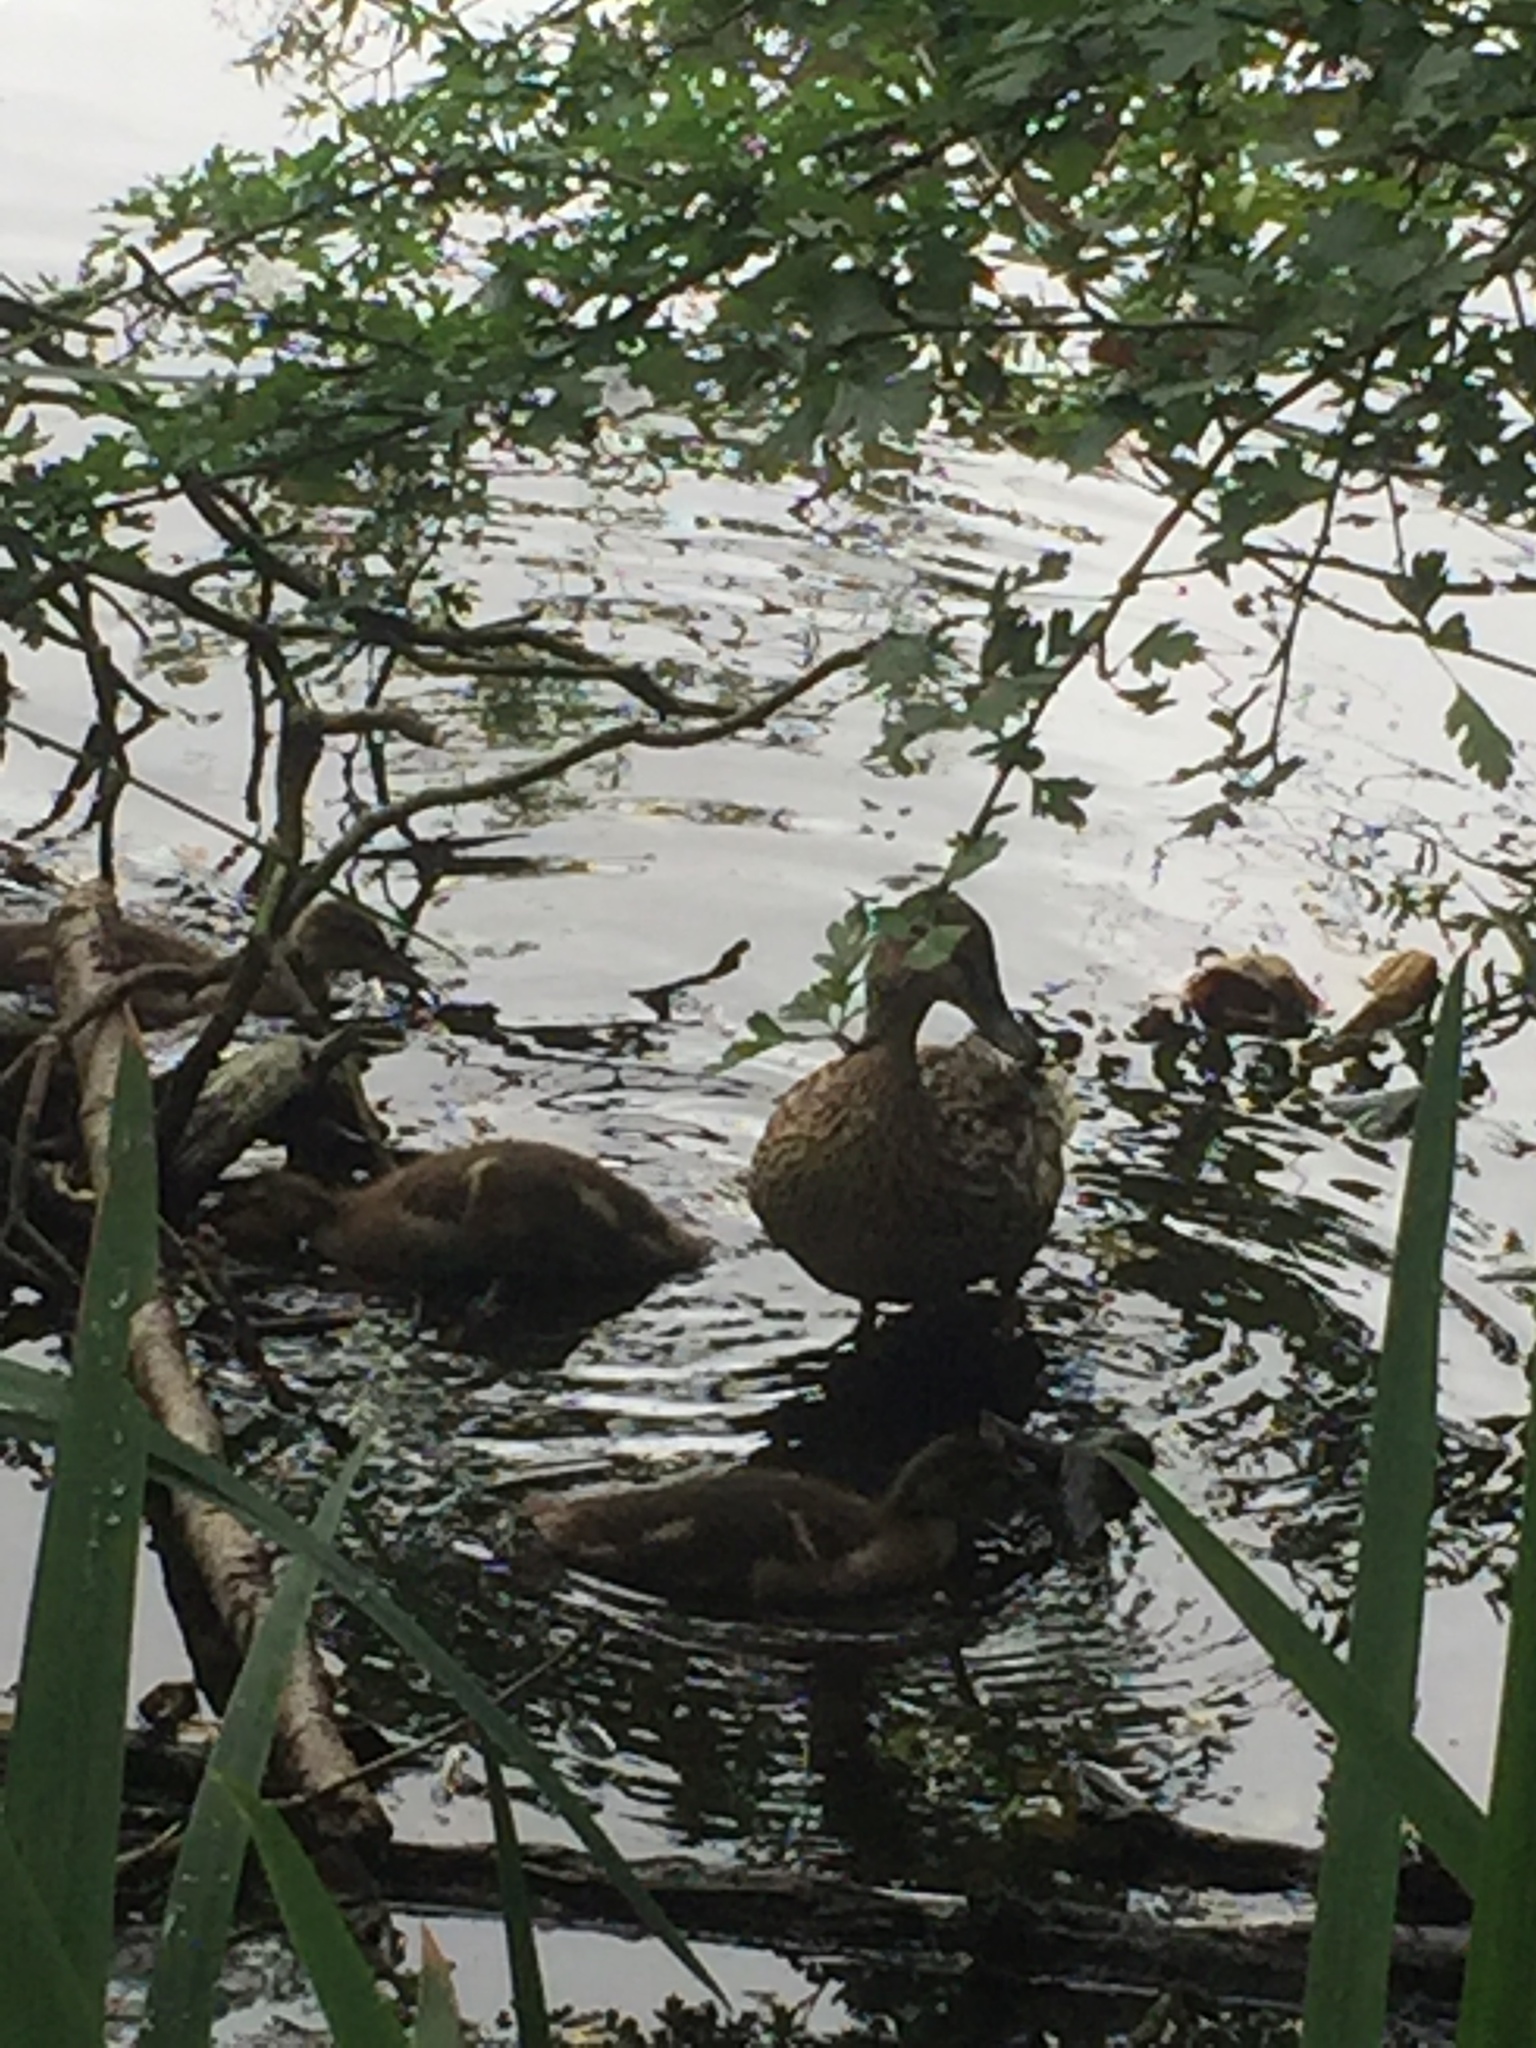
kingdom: Animalia
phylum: Chordata
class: Aves
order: Anseriformes
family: Anatidae
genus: Anas
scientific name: Anas platyrhynchos
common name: Mallard
